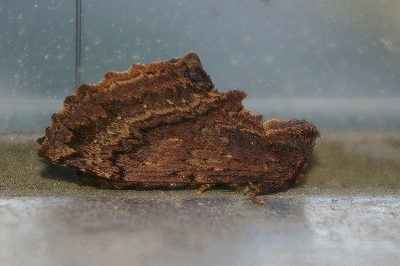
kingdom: Animalia
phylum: Arthropoda
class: Insecta
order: Lepidoptera
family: Notodontidae
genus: Ptilodon
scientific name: Ptilodon hoegei
